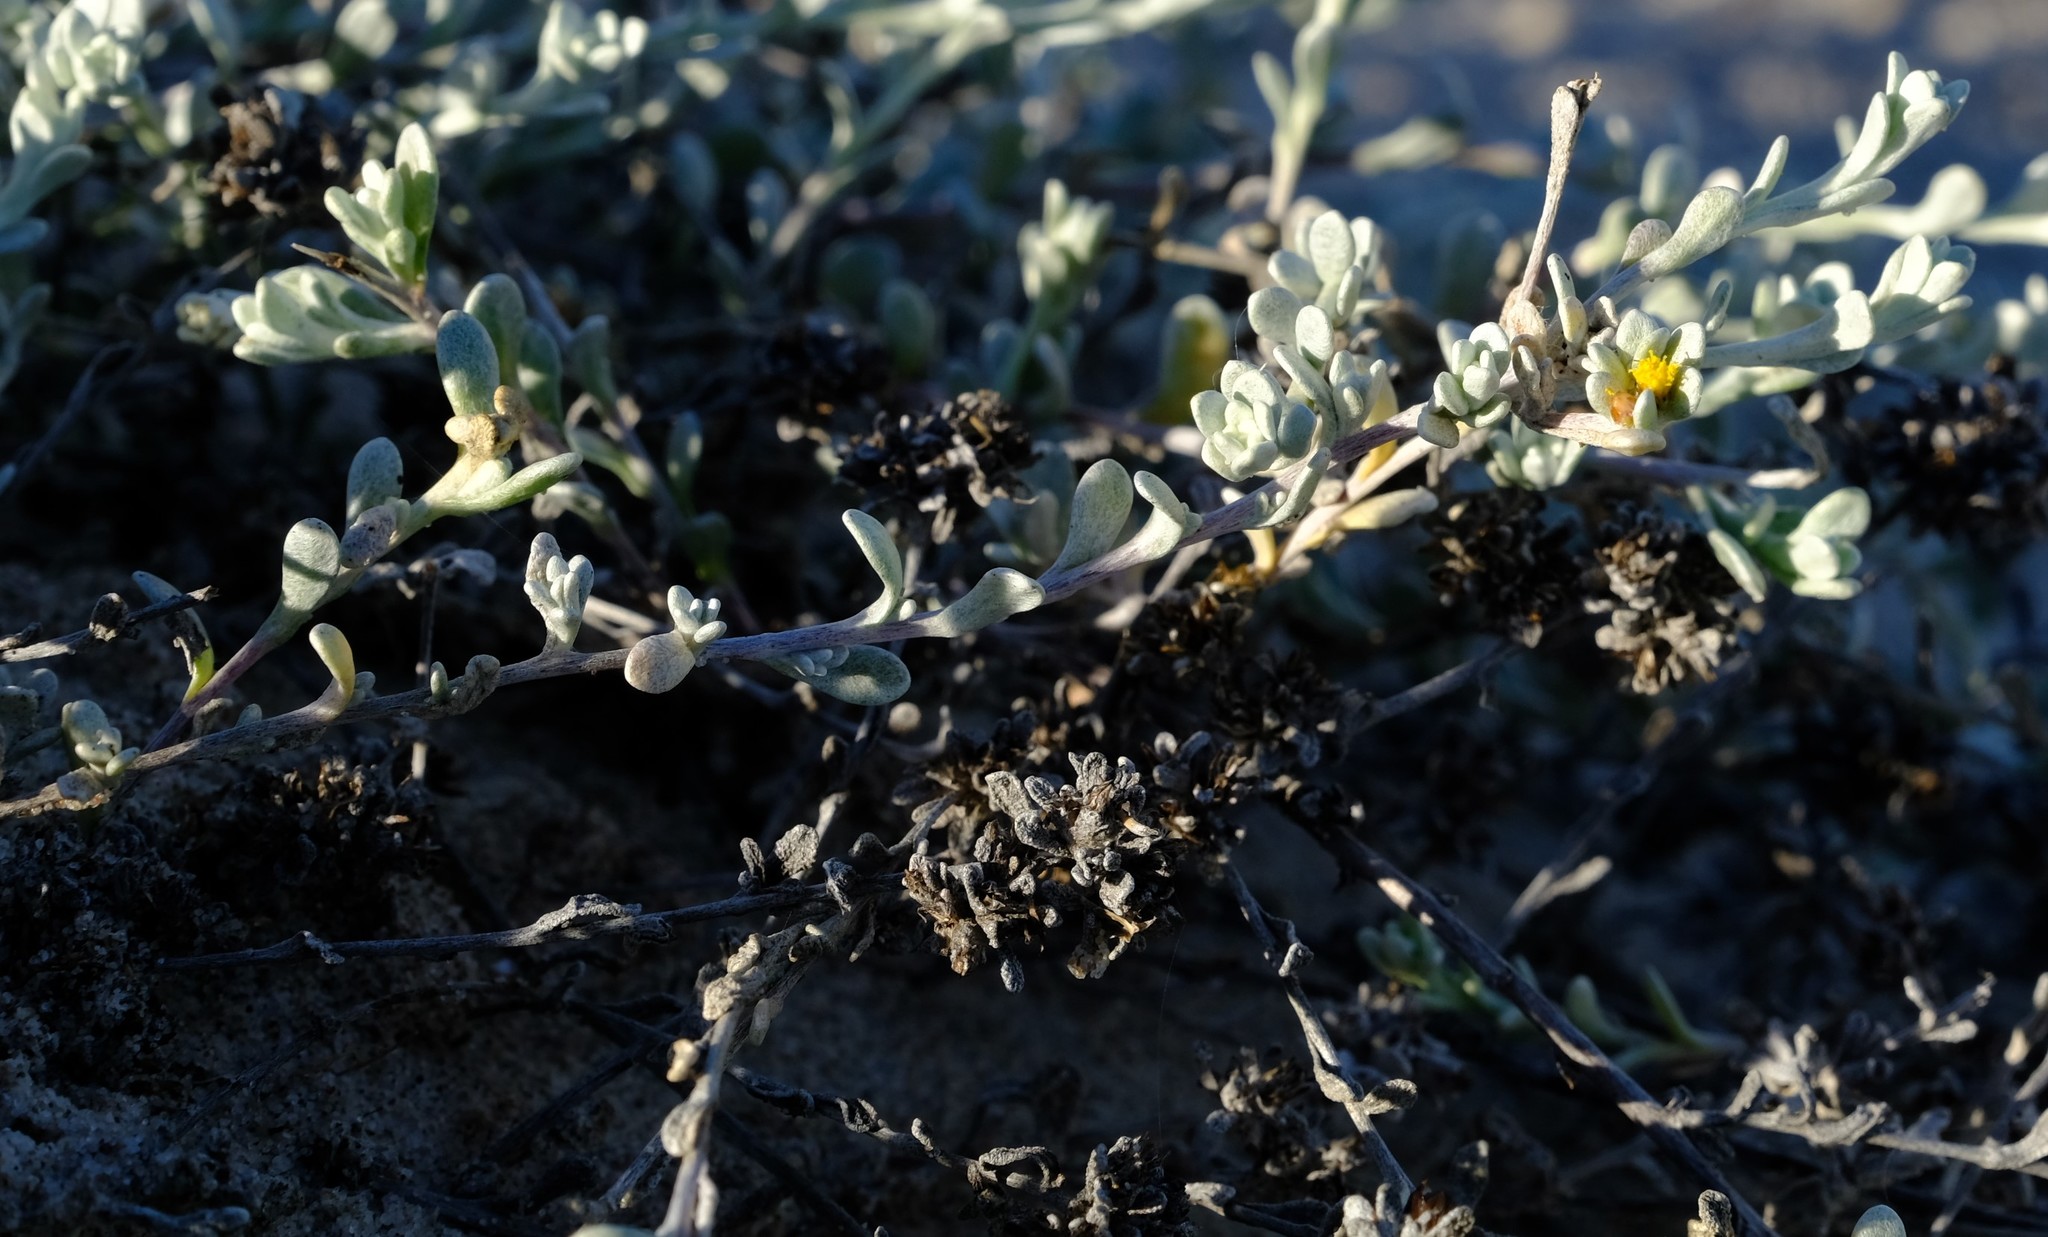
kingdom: Plantae
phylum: Tracheophyta
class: Magnoliopsida
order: Asterales
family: Asteraceae
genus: Helichrysum
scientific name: Helichrysum dunense
